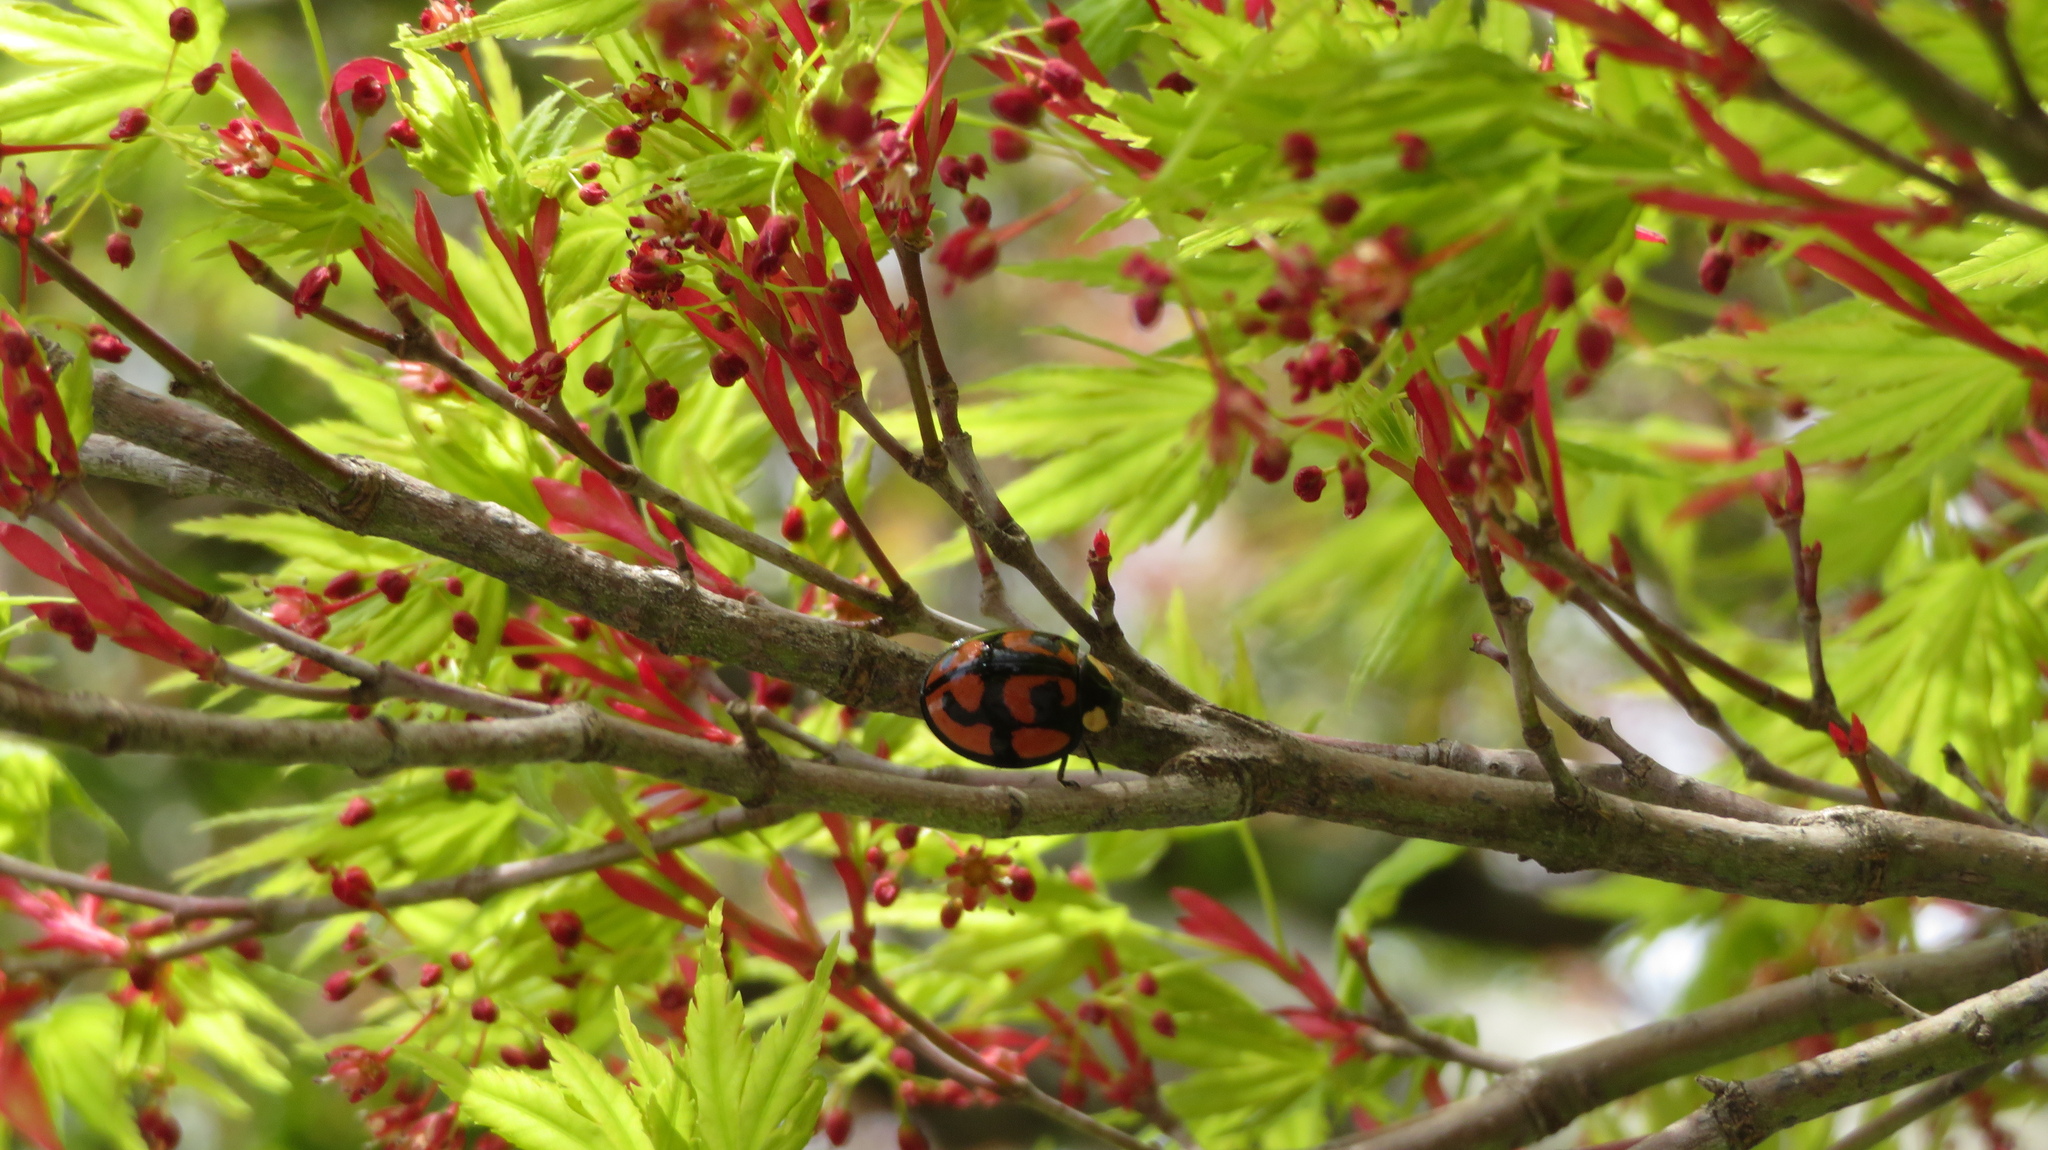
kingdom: Animalia
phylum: Arthropoda
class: Insecta
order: Coleoptera
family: Coccinellidae
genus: Aiolocaria
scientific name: Aiolocaria hexaspilota
